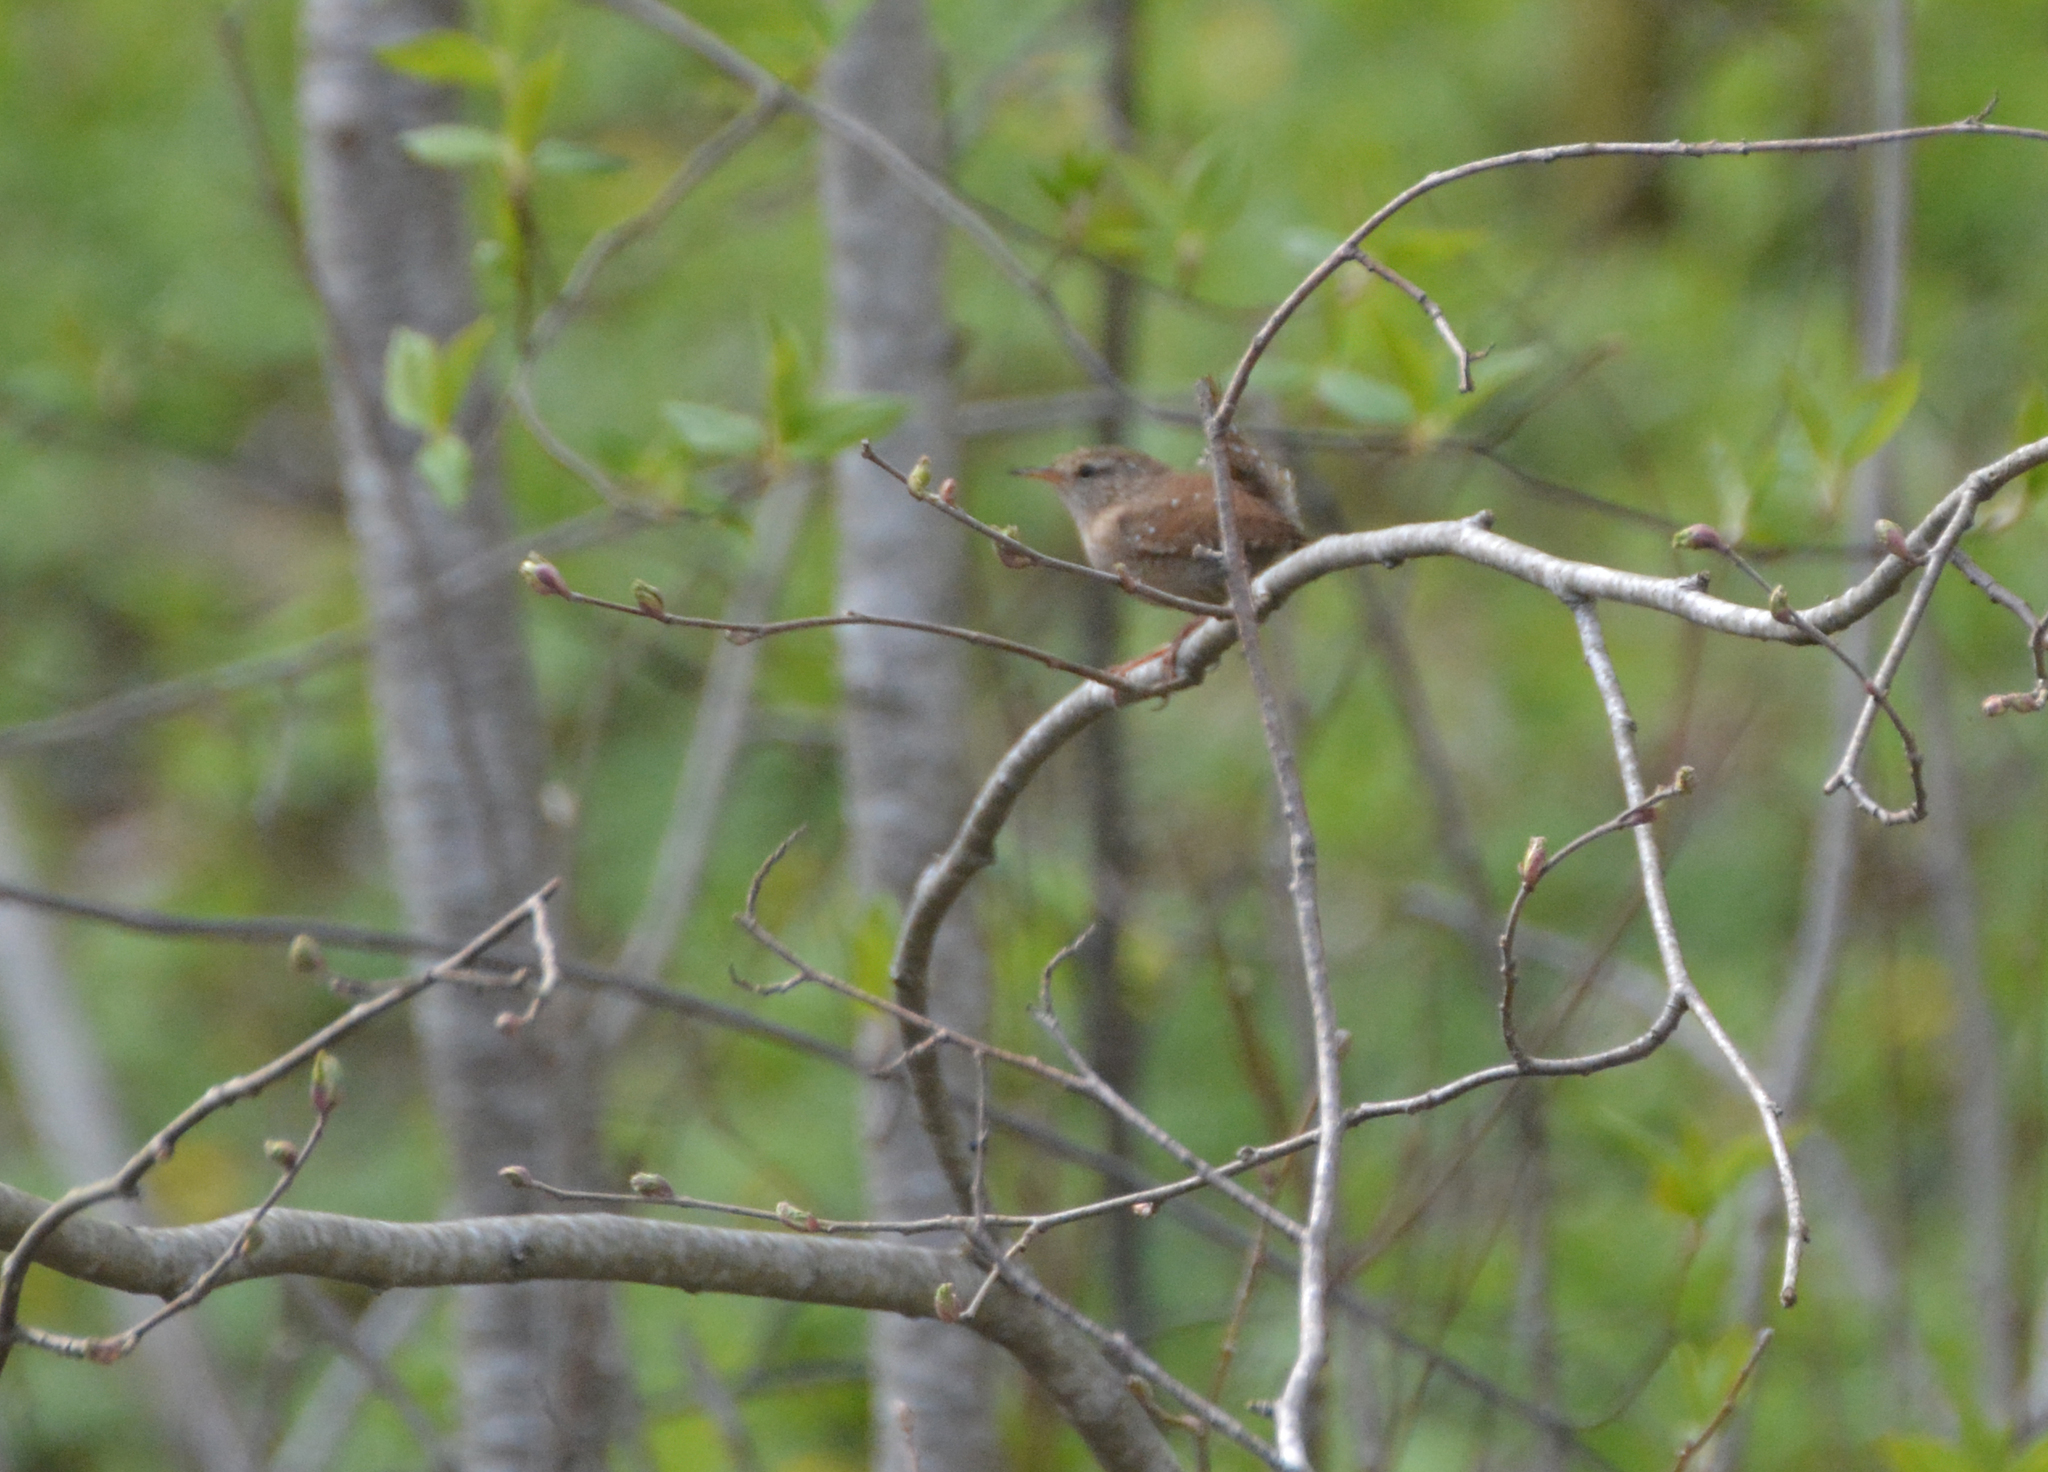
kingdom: Animalia
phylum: Chordata
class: Aves
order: Passeriformes
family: Troglodytidae
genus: Troglodytes
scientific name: Troglodytes troglodytes
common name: Eurasian wren
